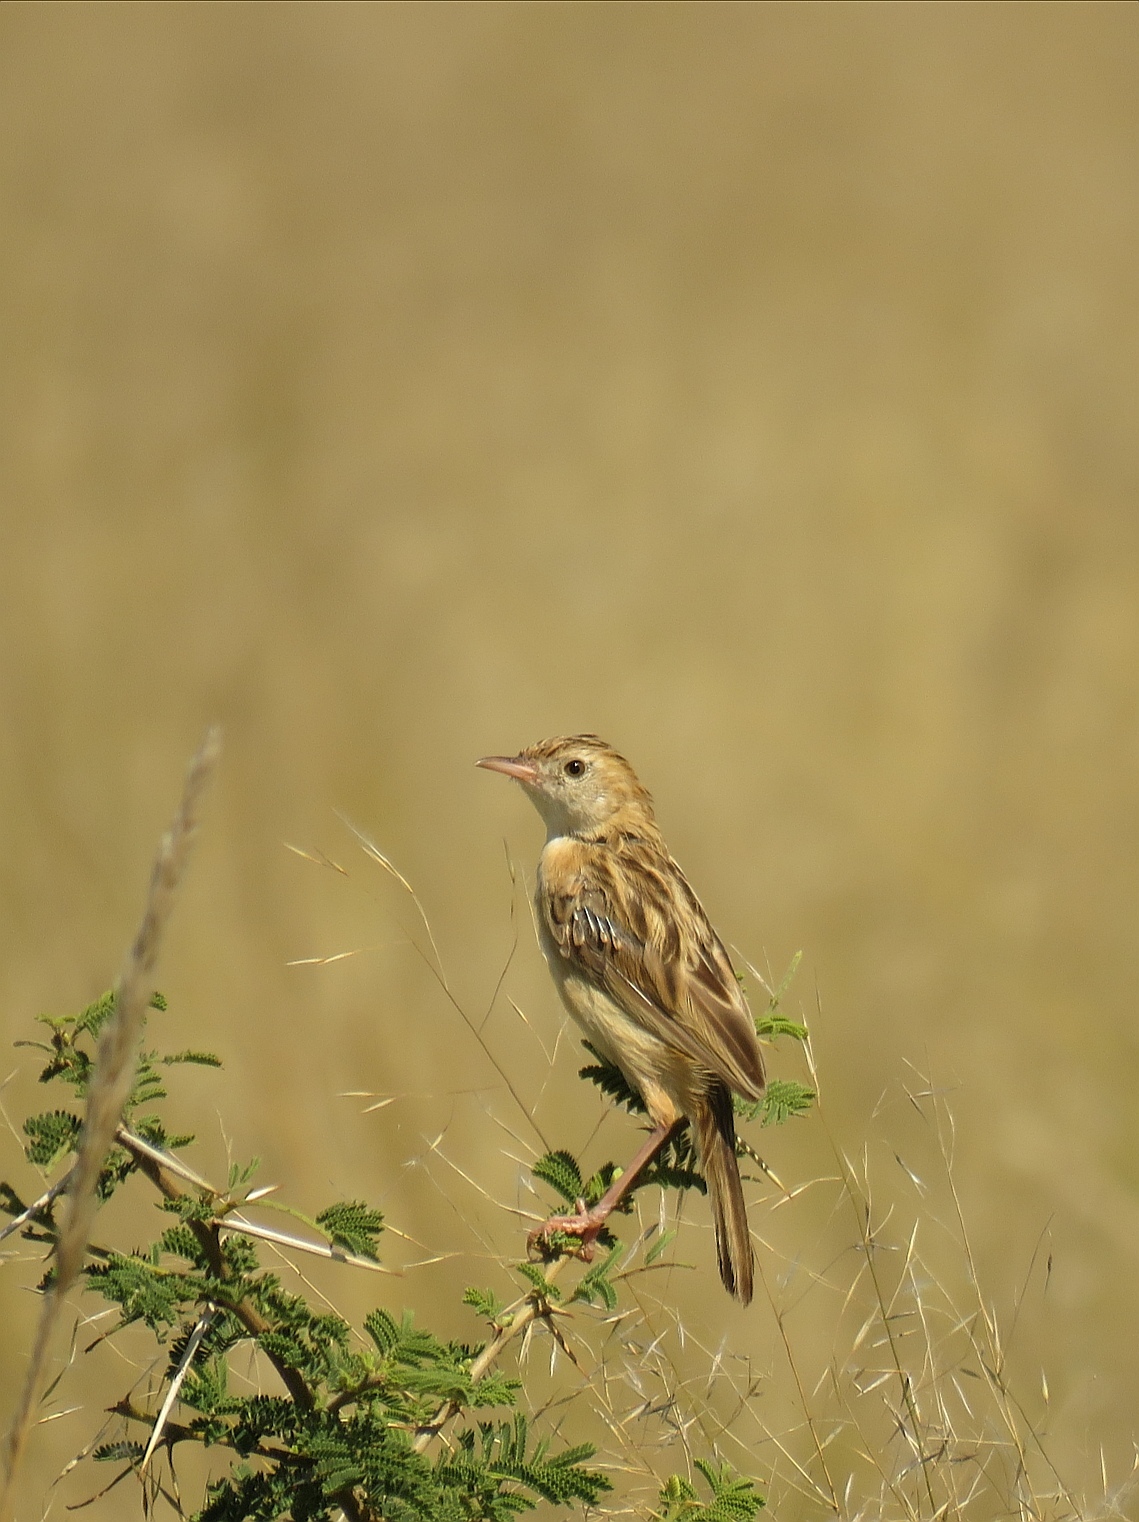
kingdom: Animalia
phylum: Chordata
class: Aves
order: Passeriformes
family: Cisticolidae
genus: Cisticola
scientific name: Cisticola aridulus
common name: Desert cisticola
